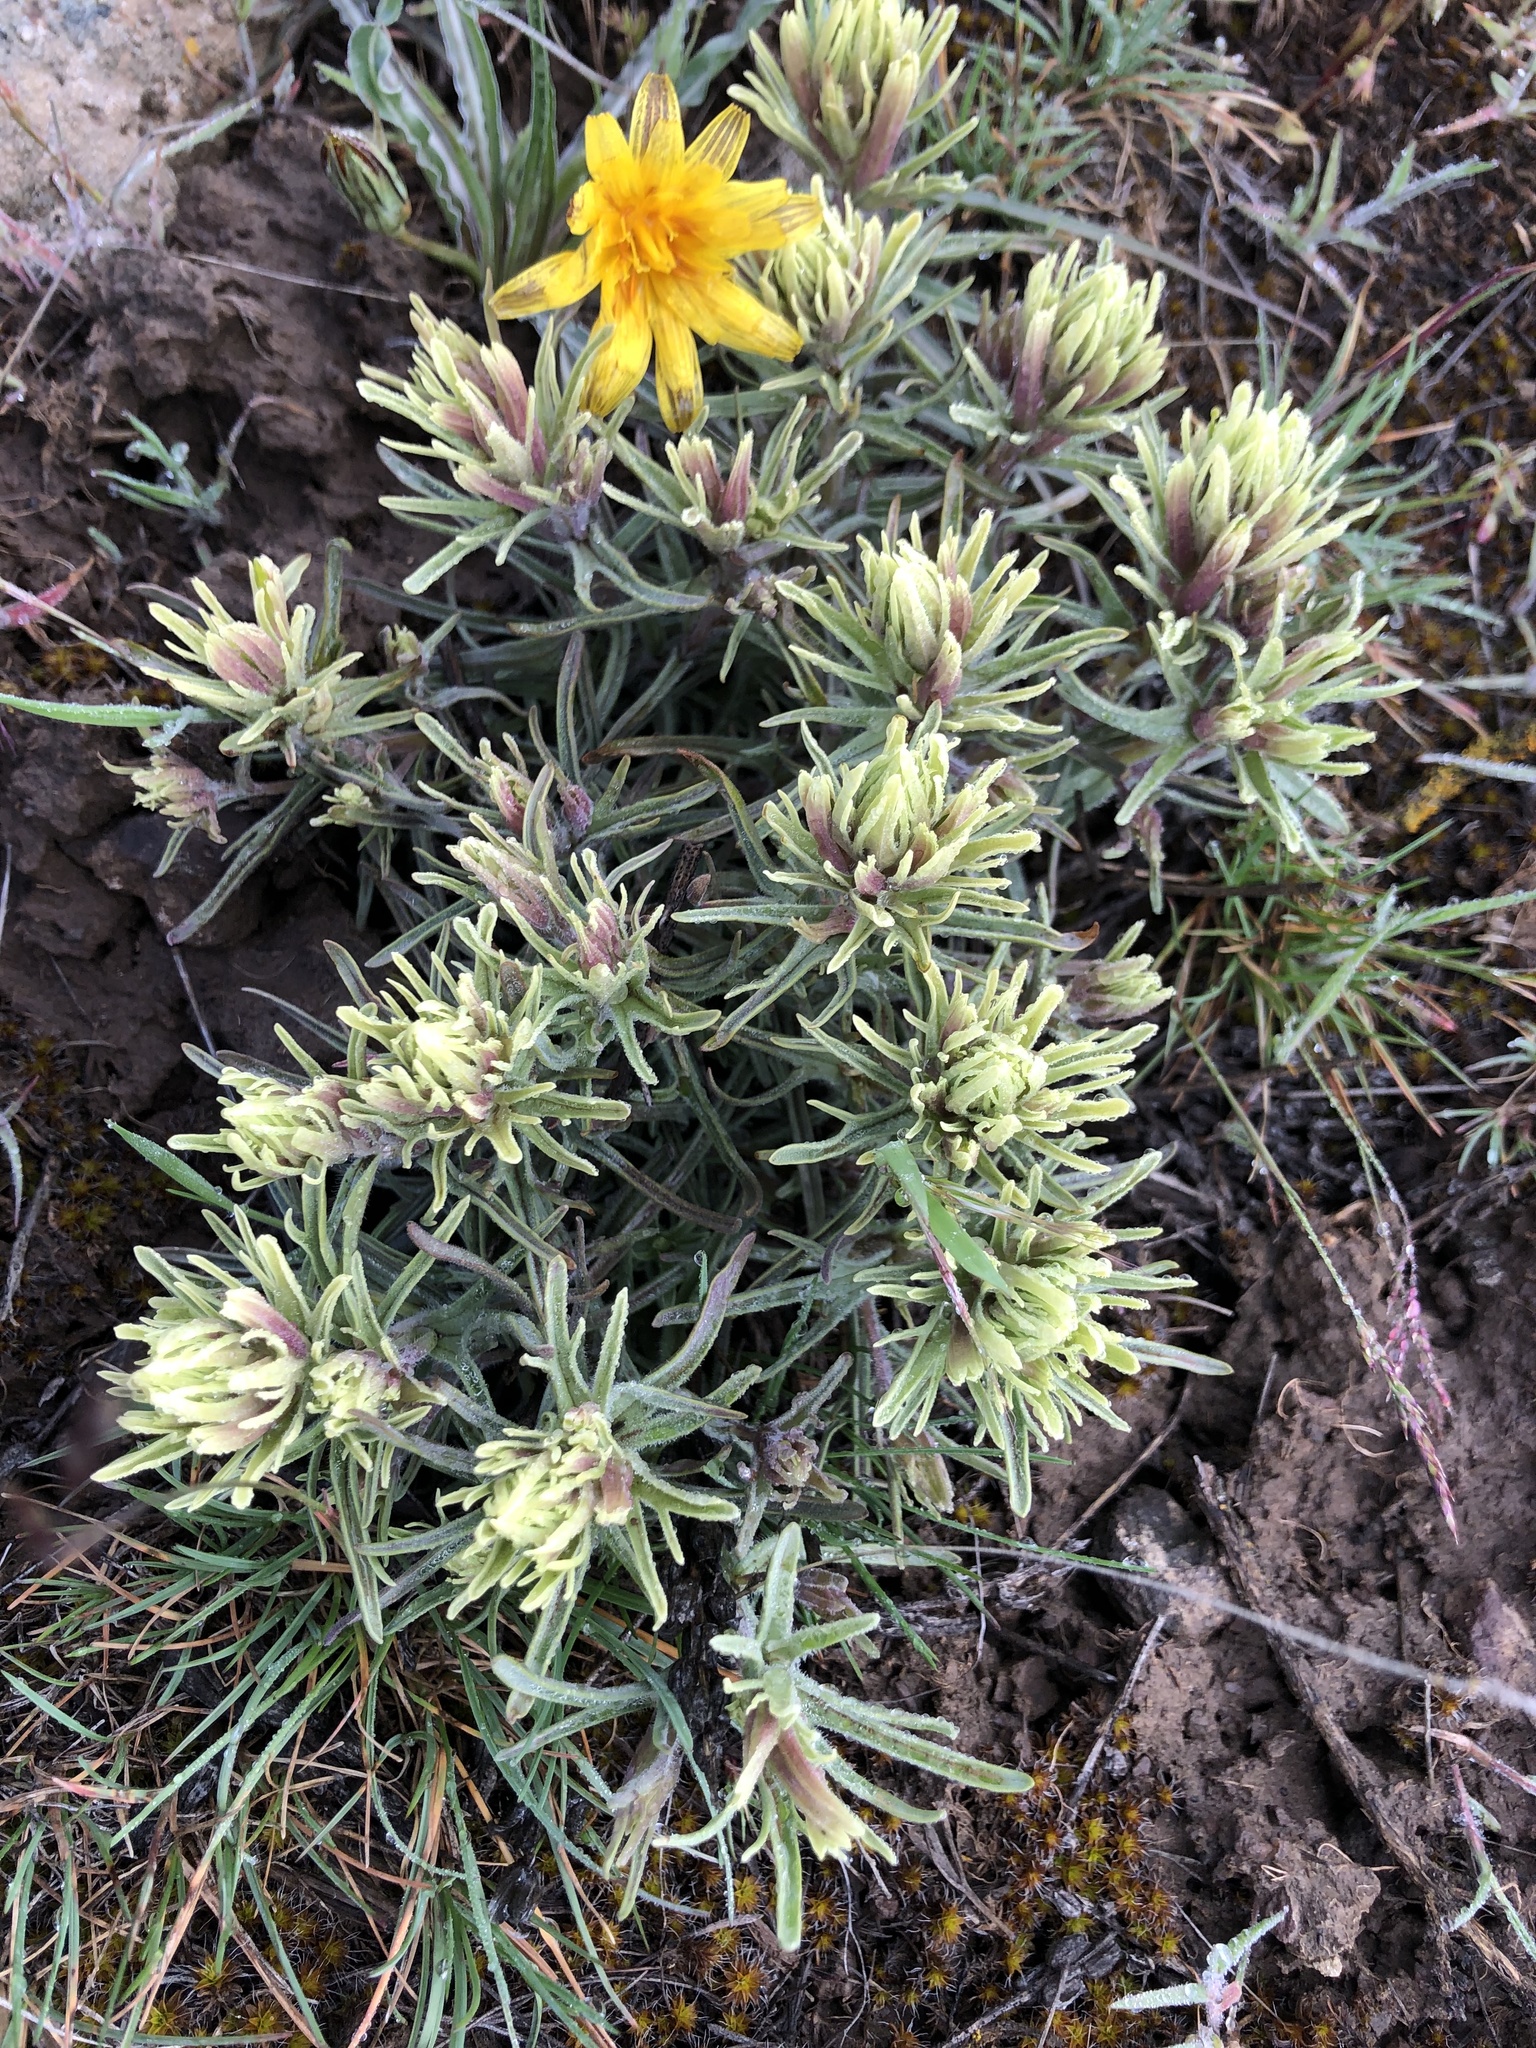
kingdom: Plantae
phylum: Tracheophyta
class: Magnoliopsida
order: Lamiales
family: Orobanchaceae
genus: Castilleja
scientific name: Castilleja thompsonii
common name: Thompson's paintbrush
